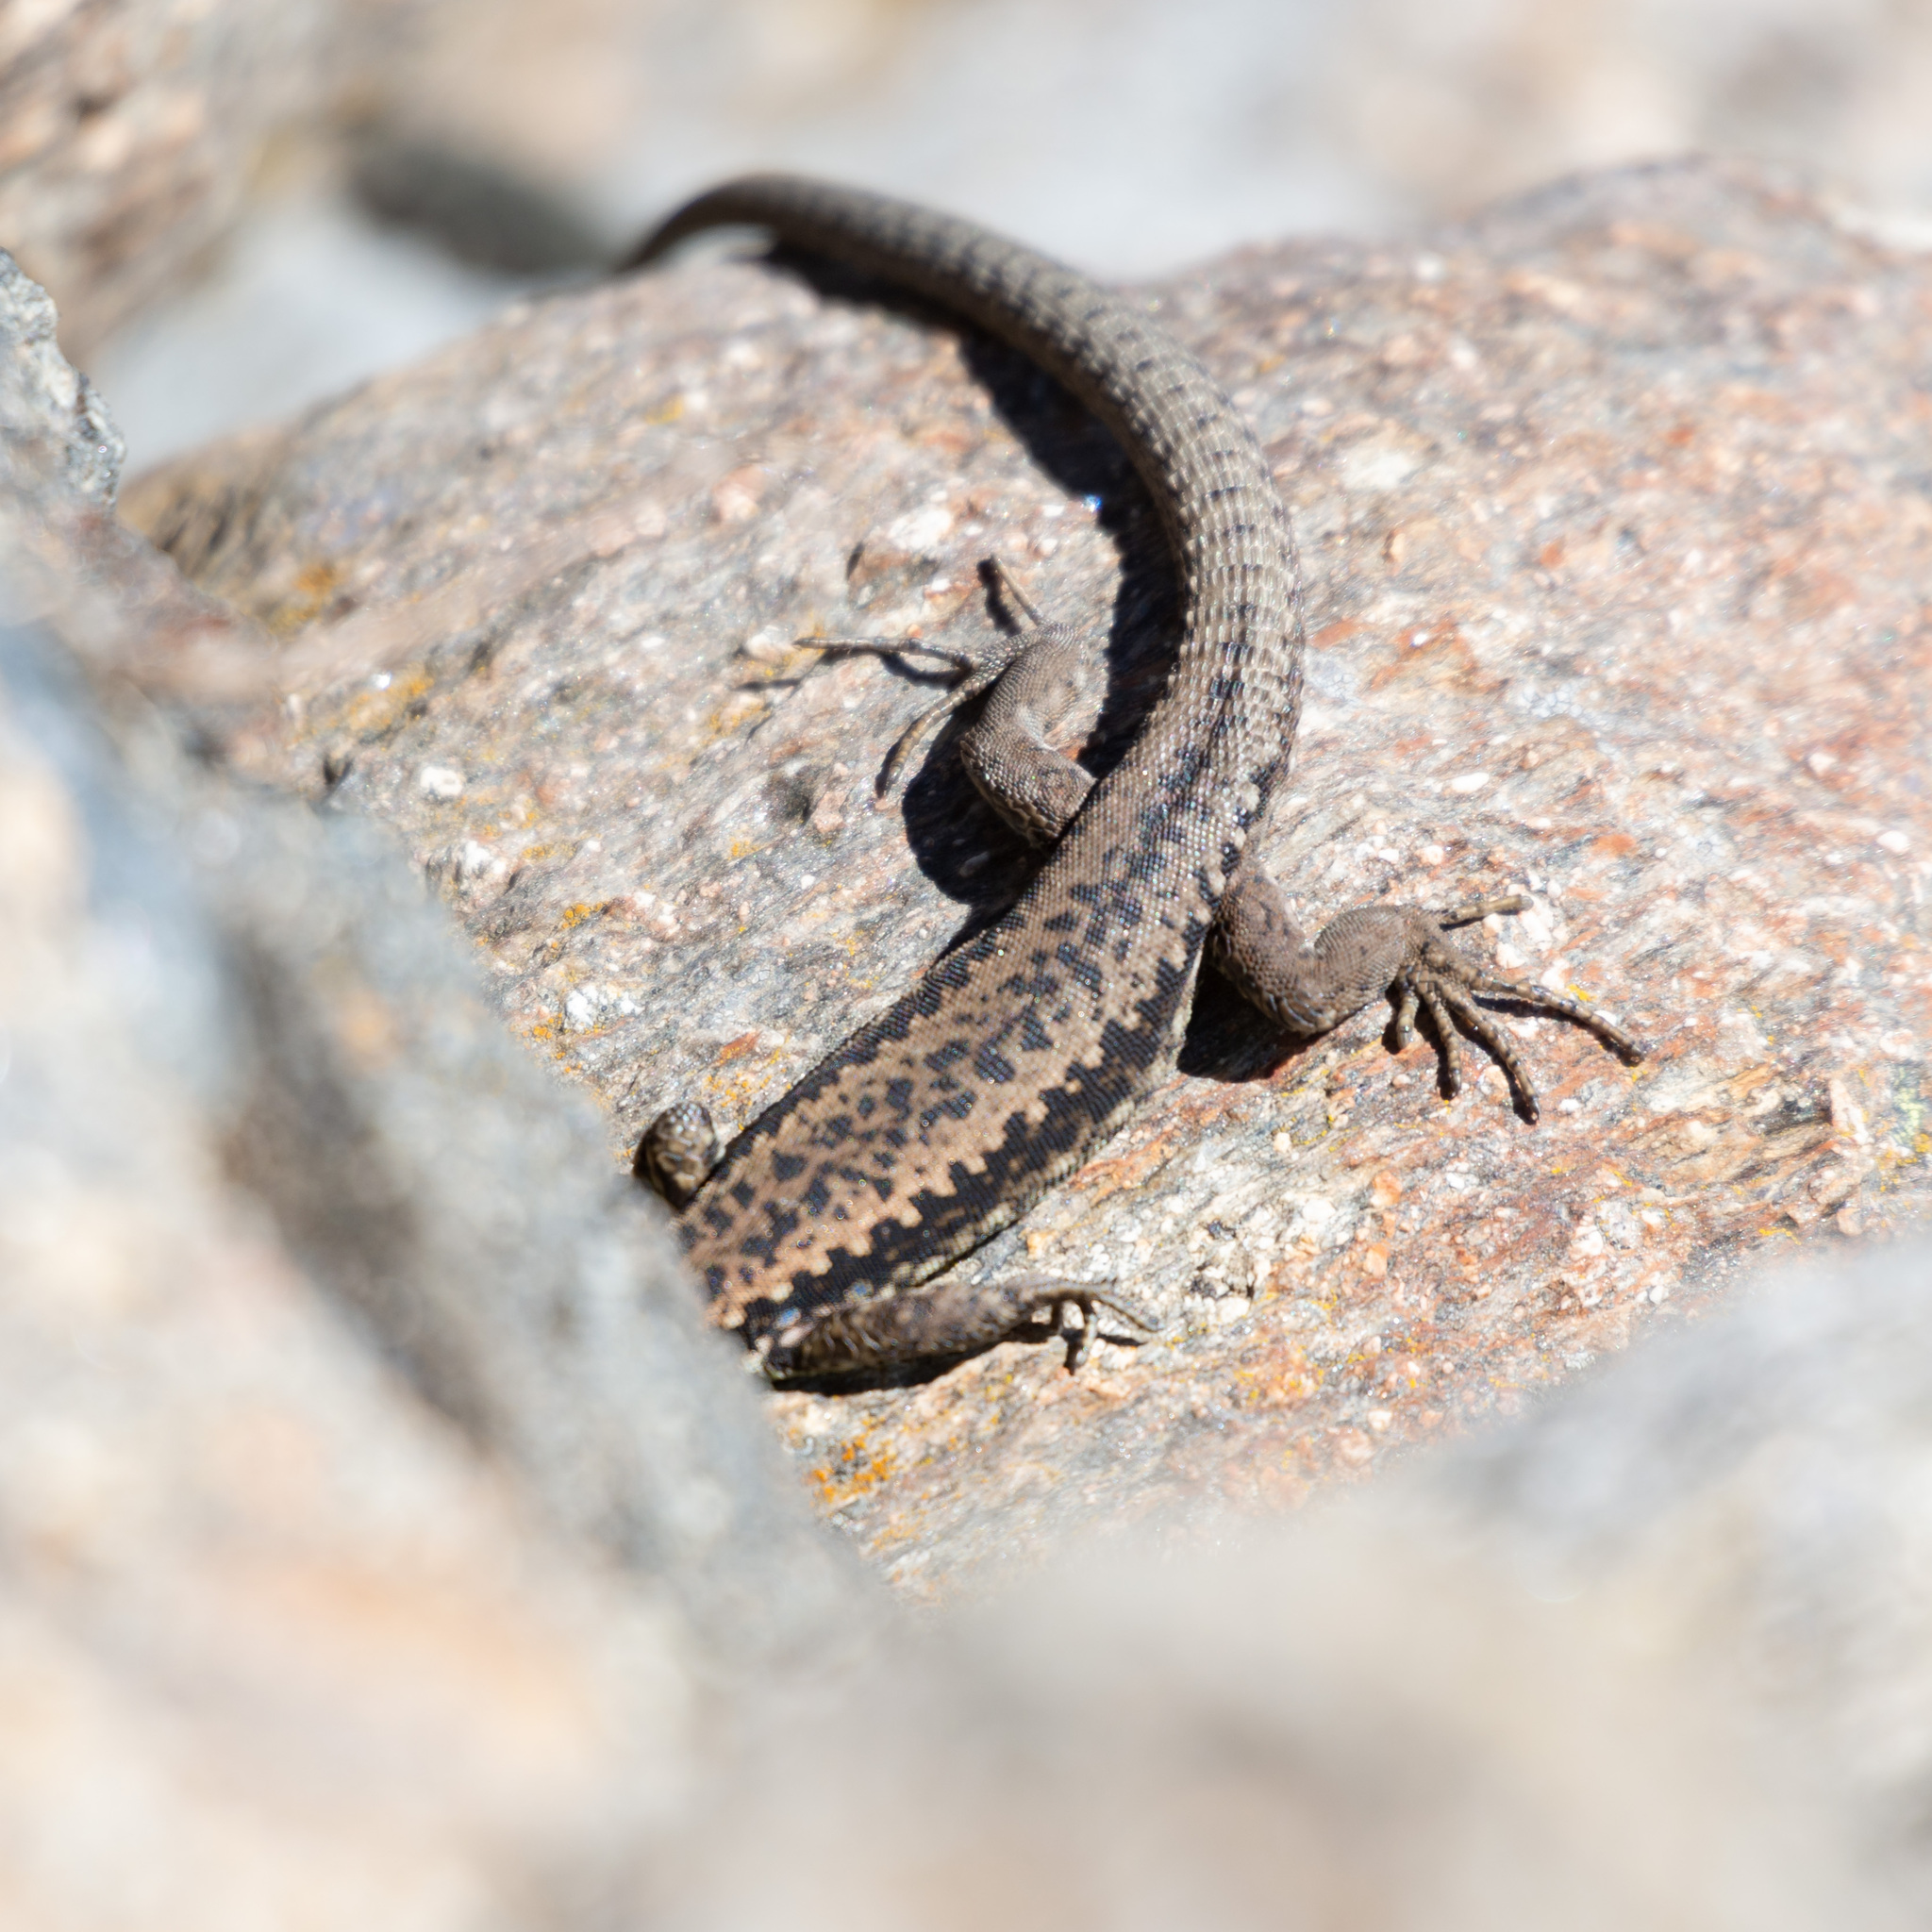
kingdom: Animalia
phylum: Chordata
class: Squamata
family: Lacertidae
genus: Iberolacerta
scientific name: Iberolacerta galani
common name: Galan's rock lizard
